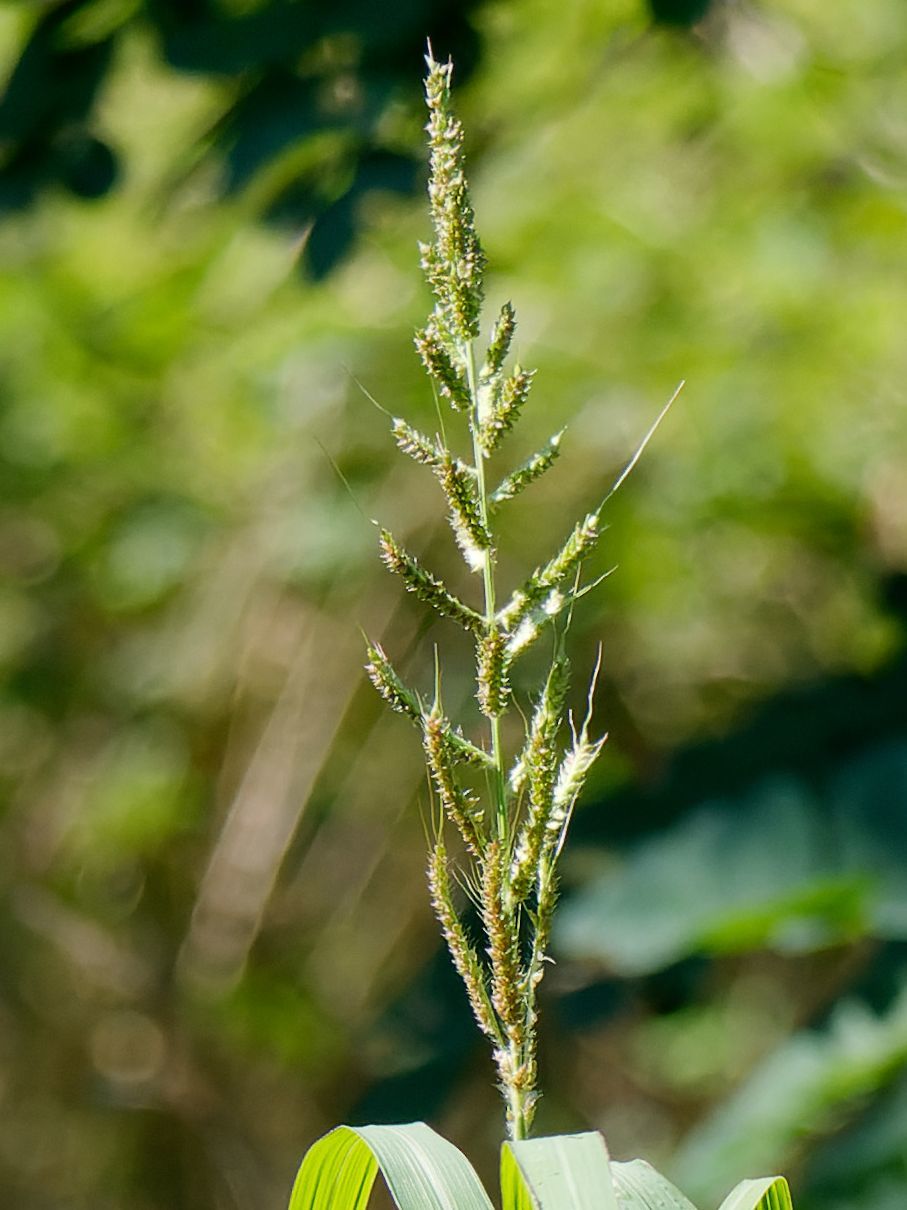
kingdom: Plantae
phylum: Tracheophyta
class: Liliopsida
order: Poales
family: Poaceae
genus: Echinochloa
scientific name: Echinochloa crus-galli
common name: Cockspur
